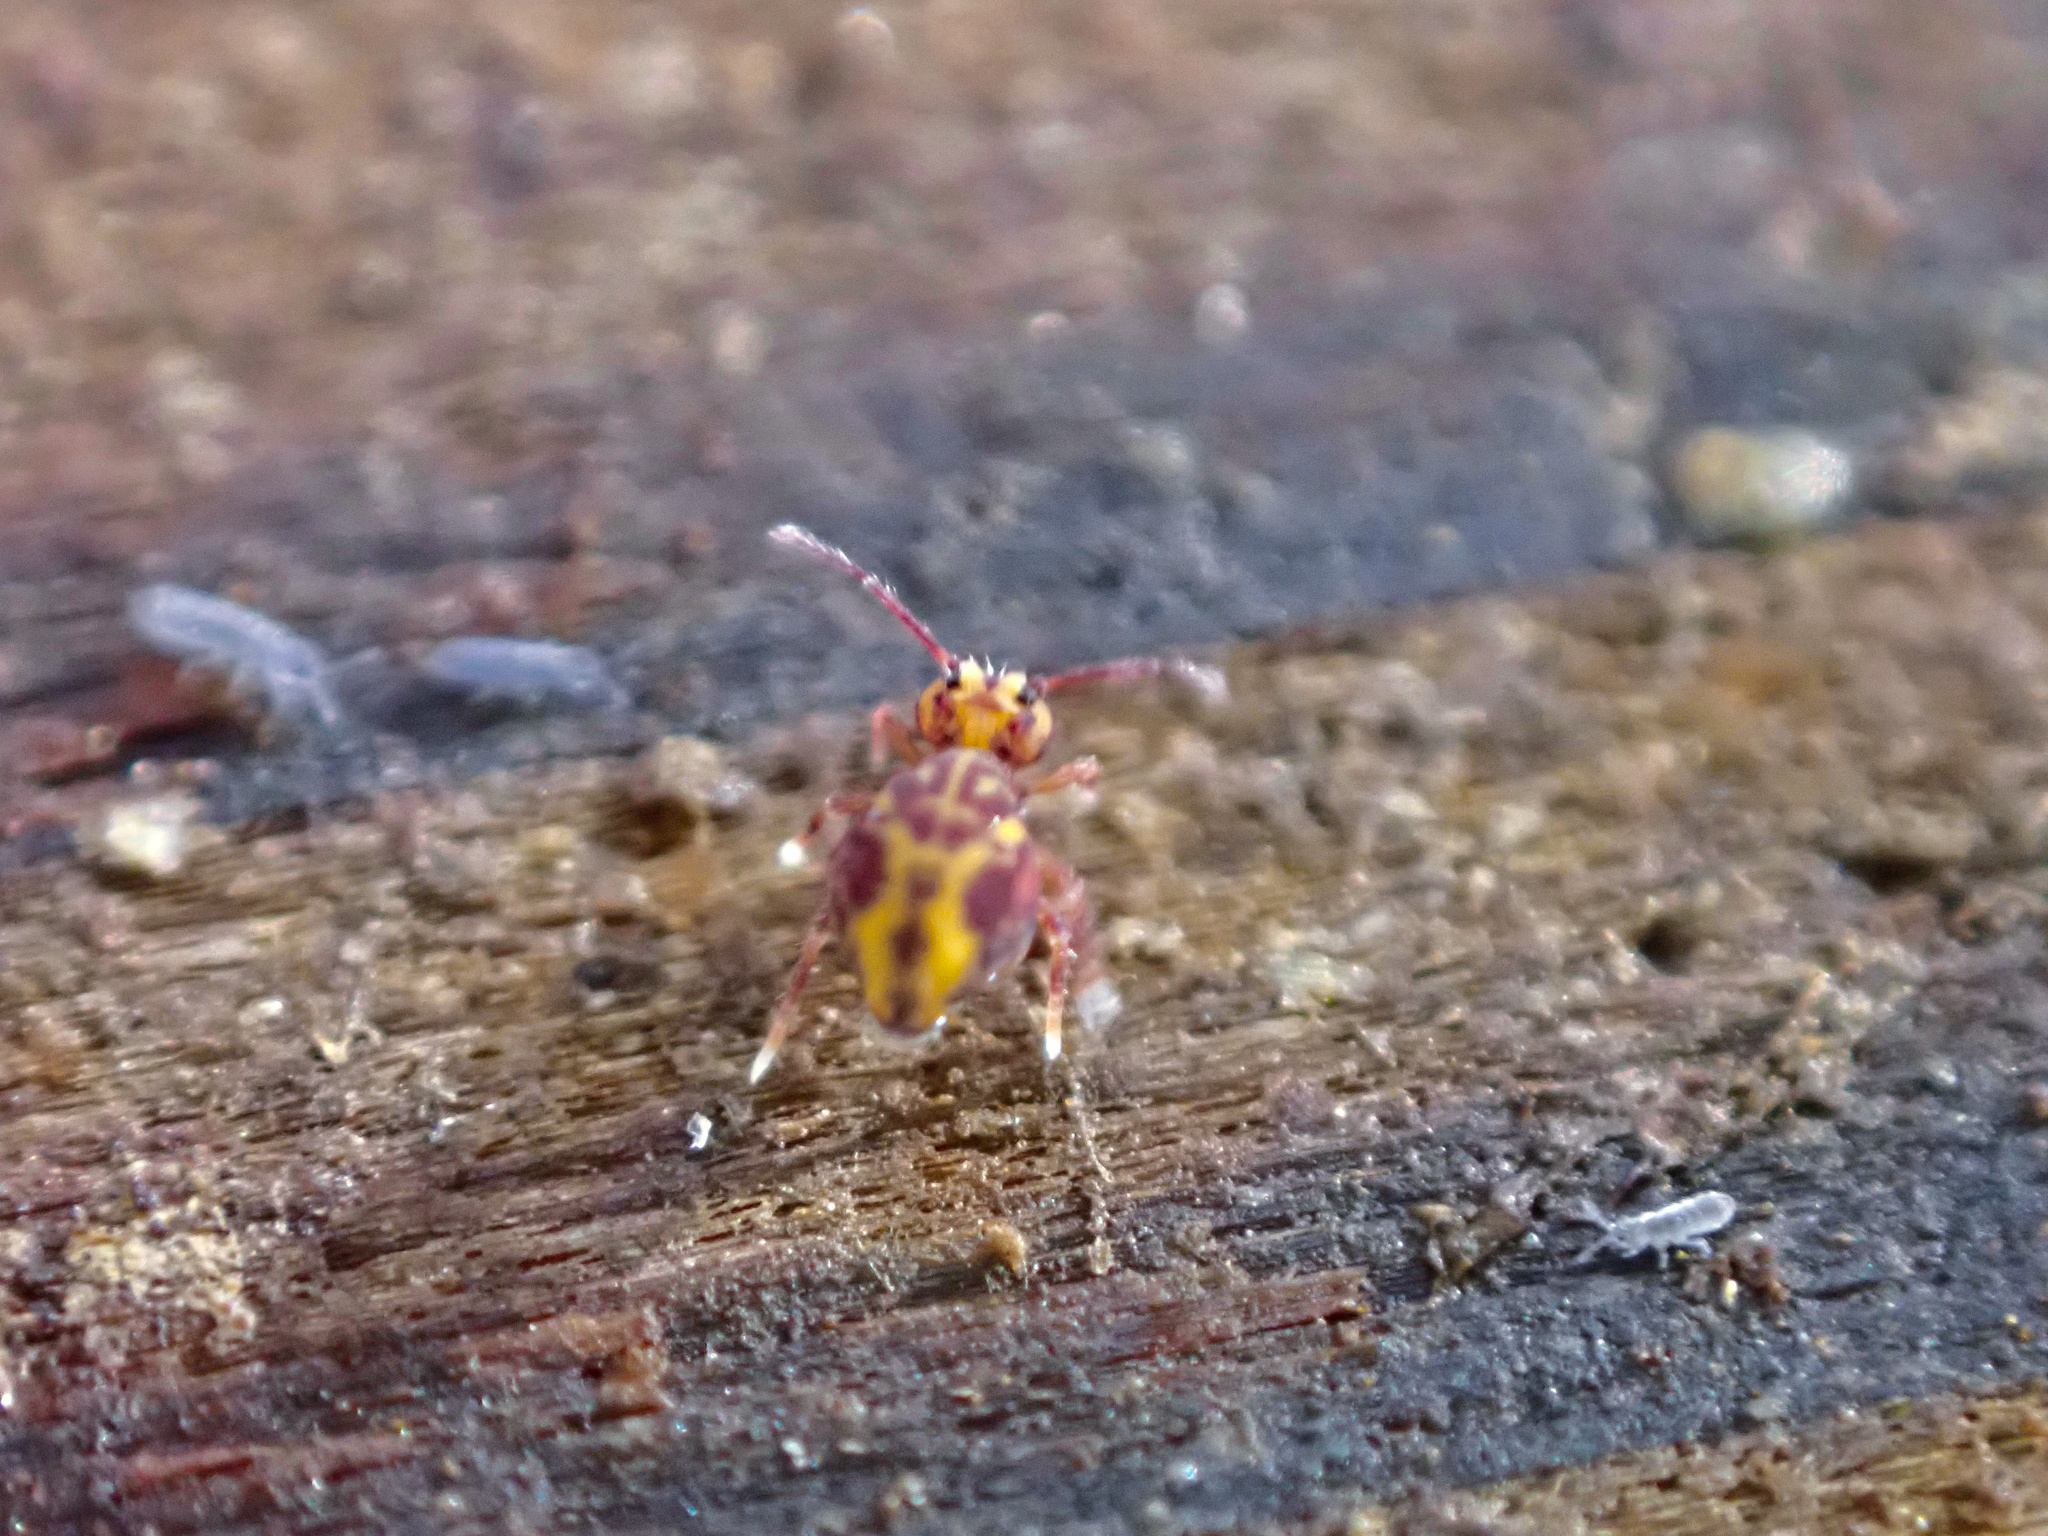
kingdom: Animalia
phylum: Arthropoda
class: Collembola
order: Symphypleona
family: Dicyrtomidae
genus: Dicyrtomina
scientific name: Dicyrtomina minuta
